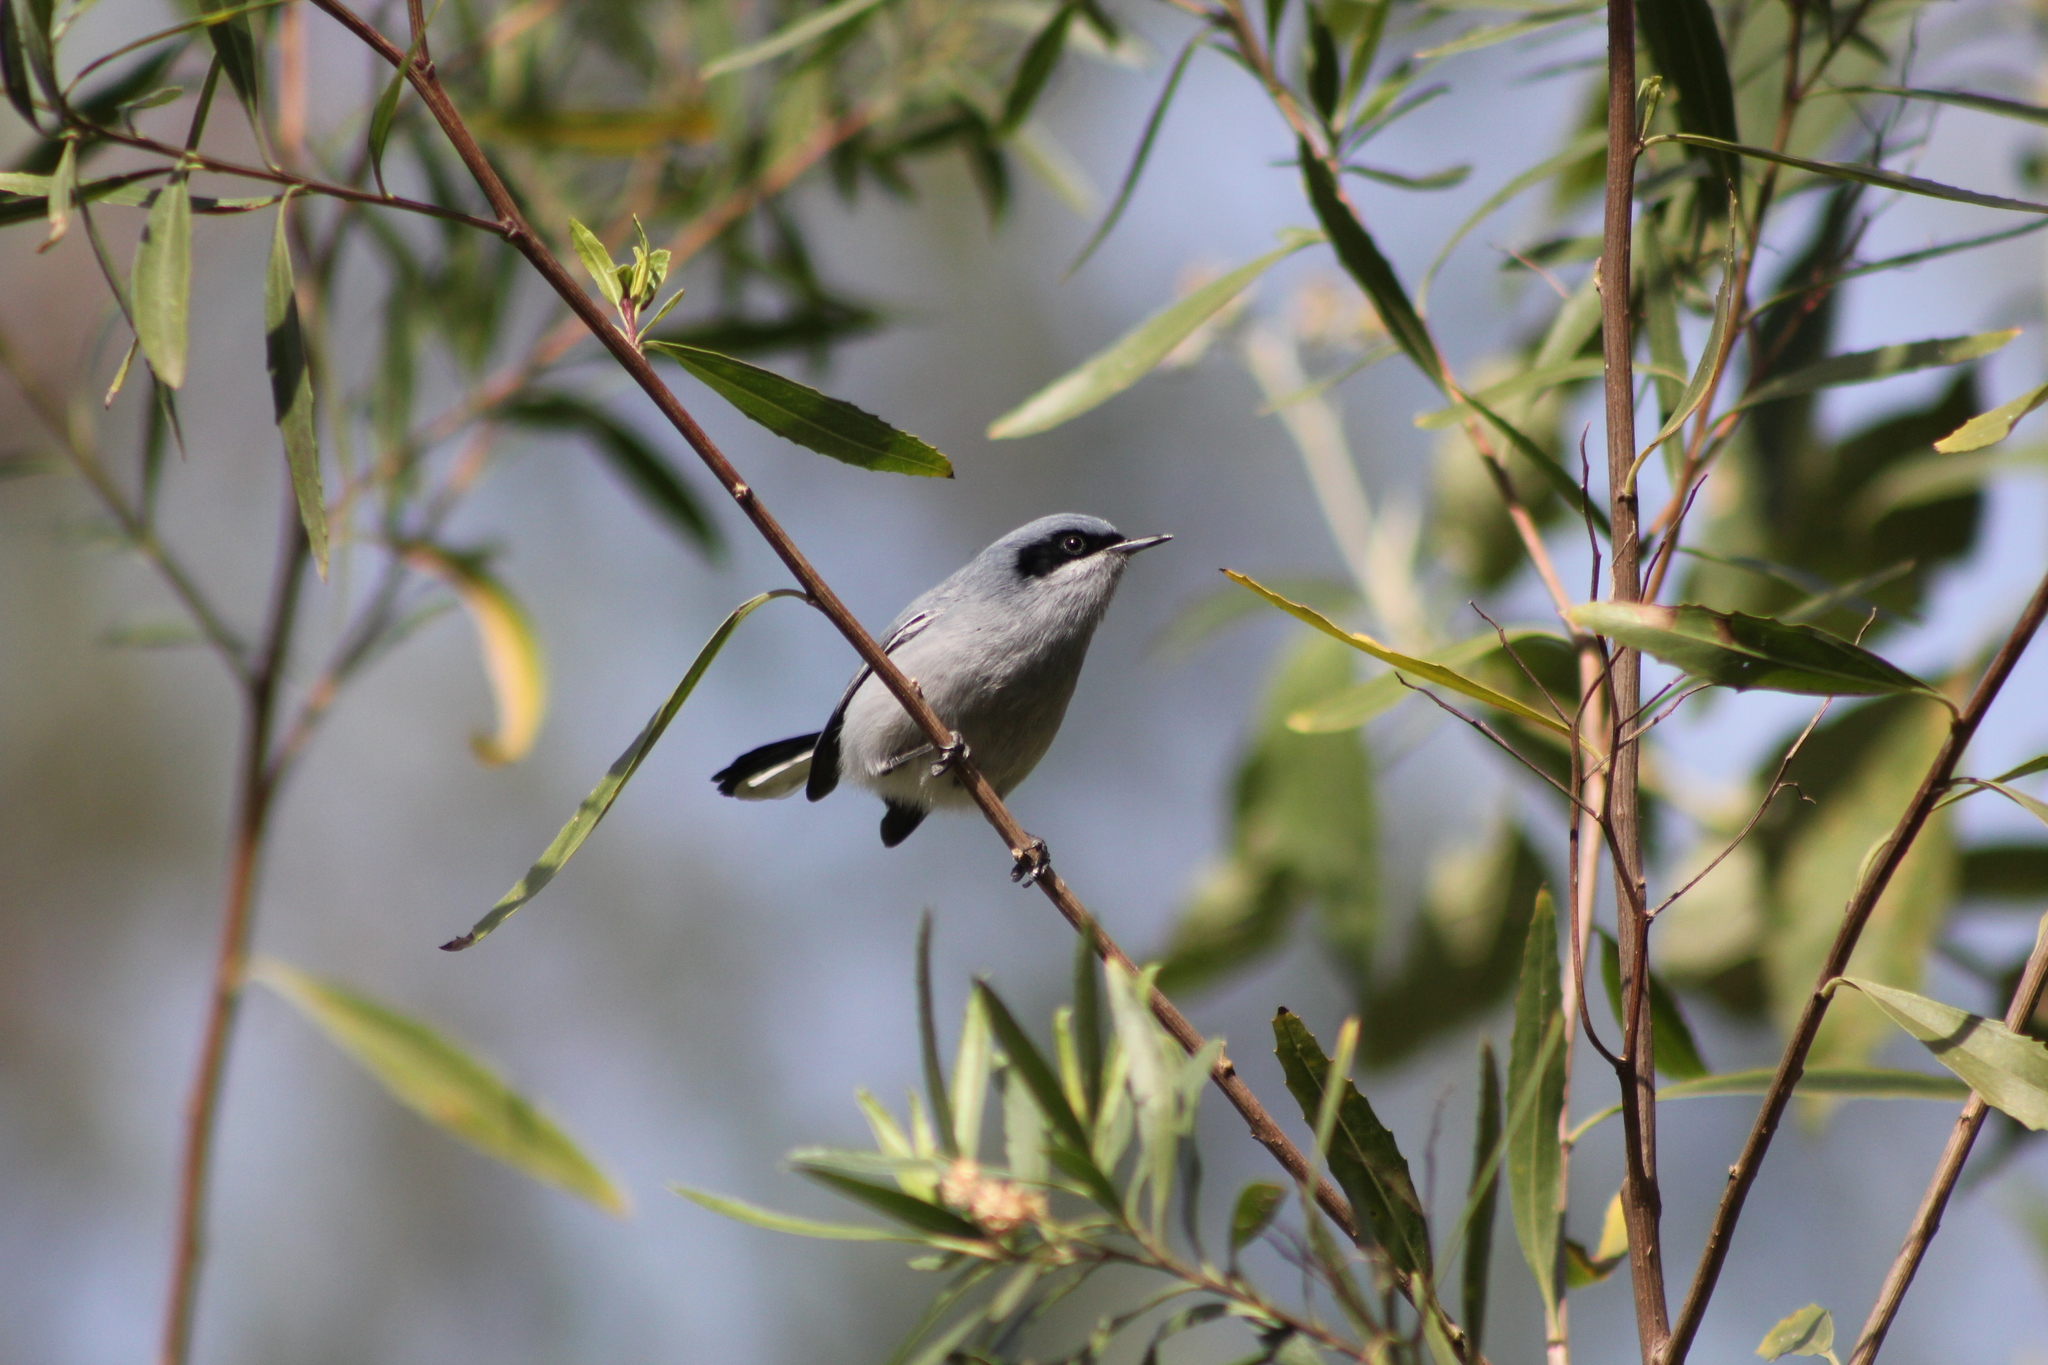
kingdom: Animalia
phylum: Chordata
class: Aves
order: Passeriformes
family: Polioptilidae
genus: Polioptila
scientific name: Polioptila dumicola
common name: Masked gnatcatcher
